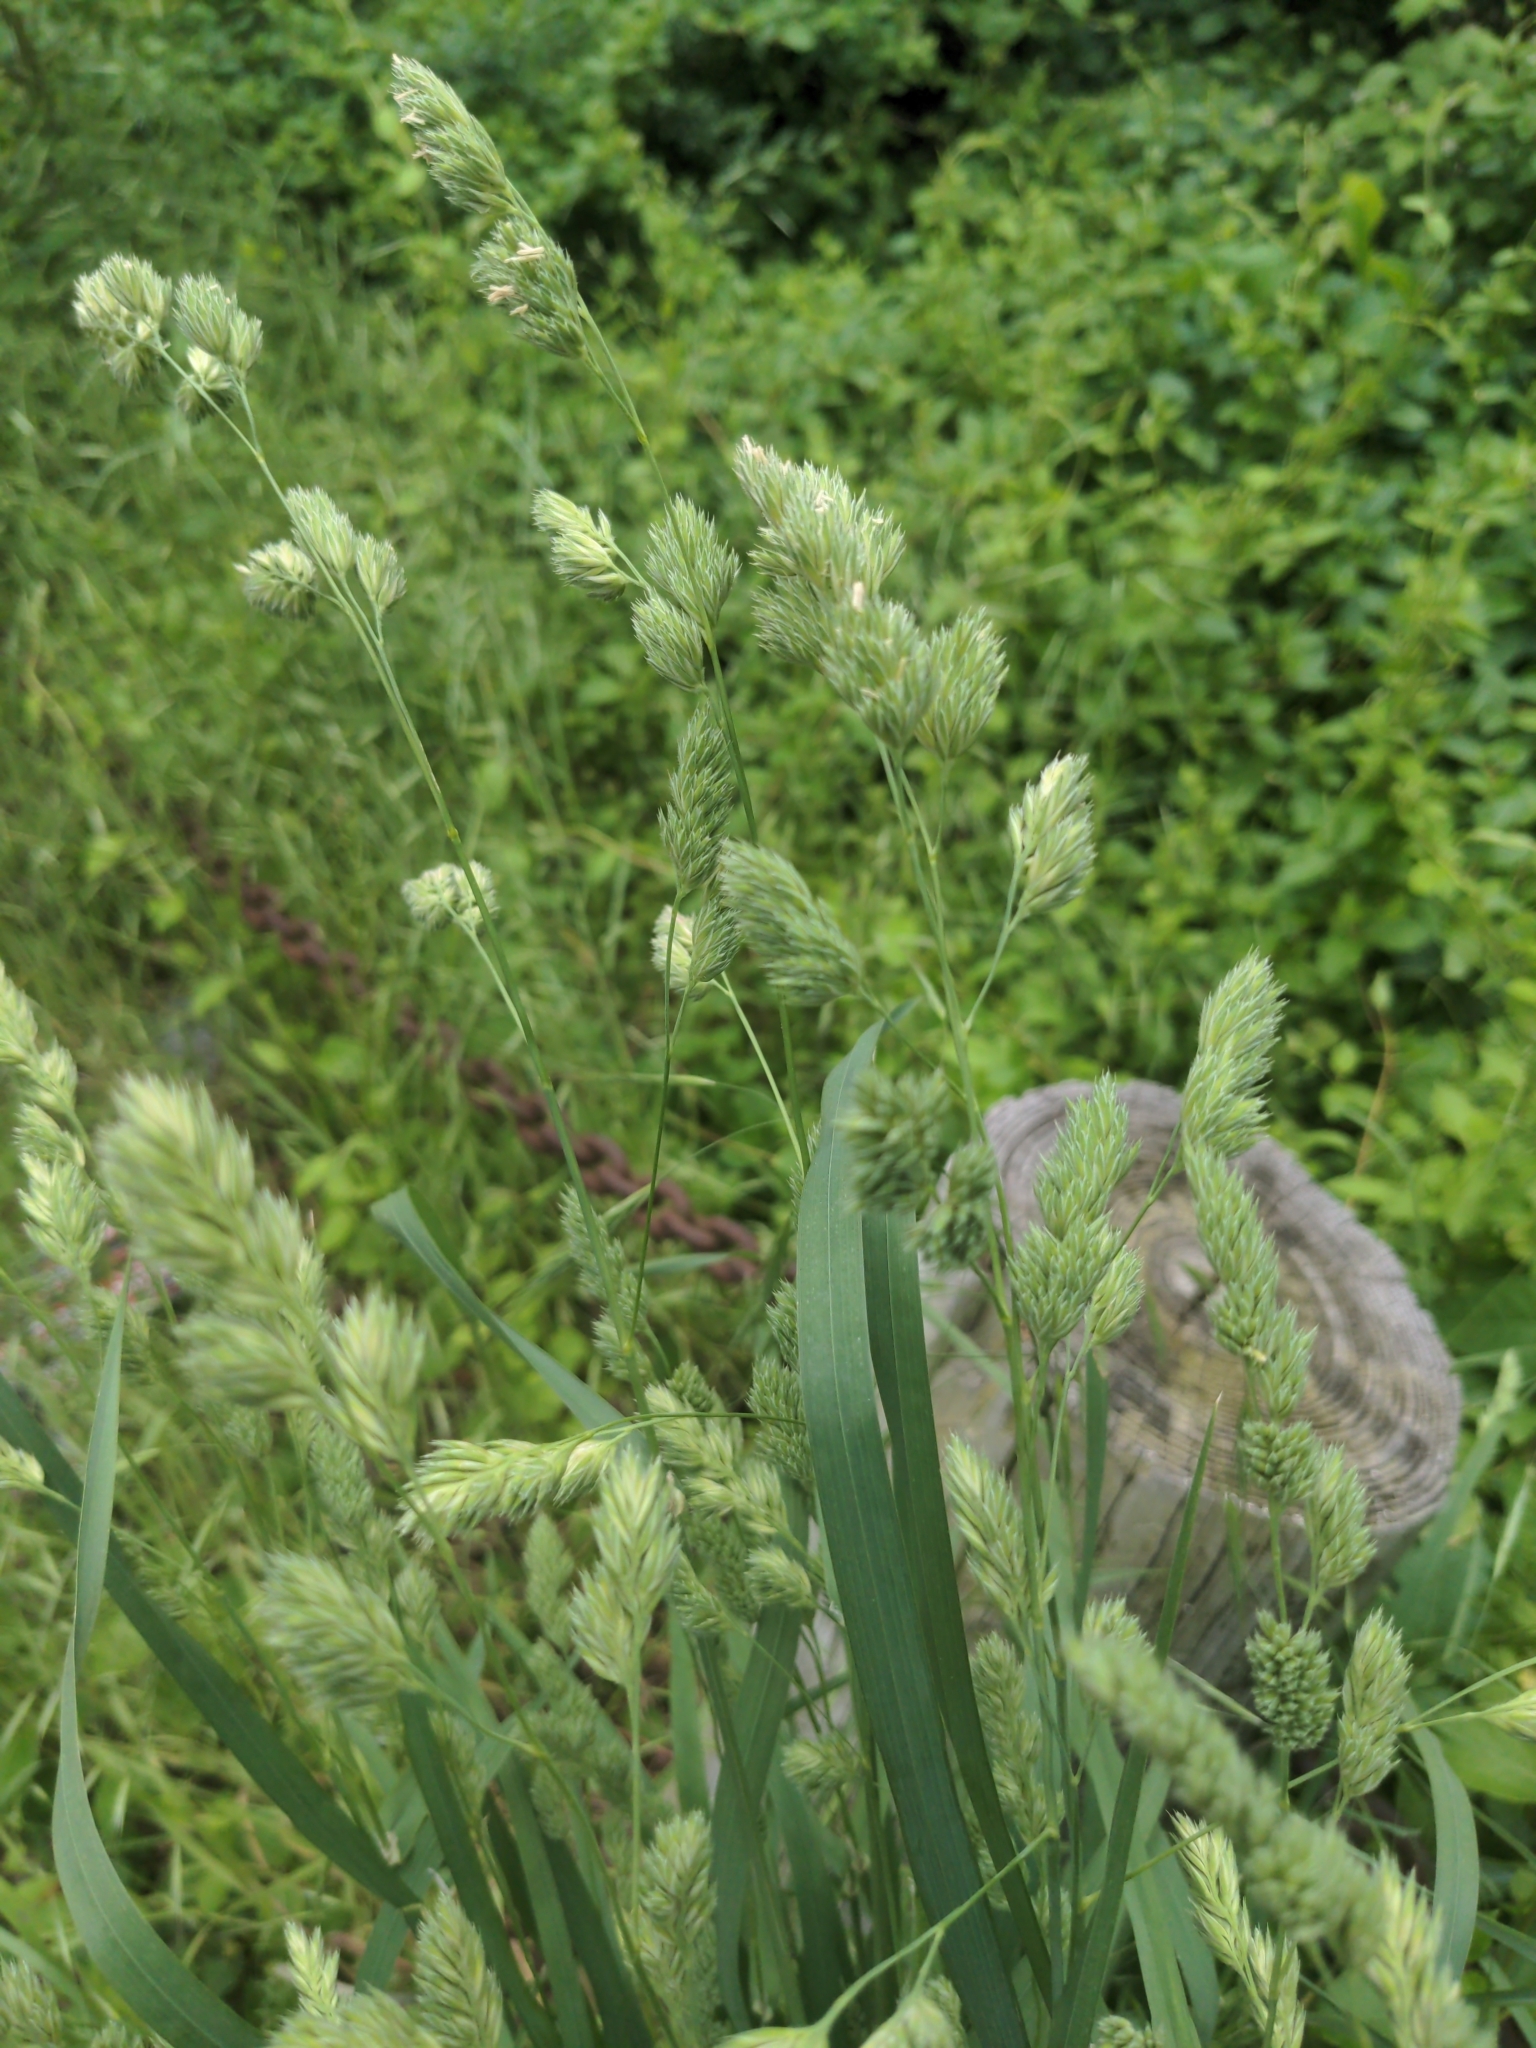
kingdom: Plantae
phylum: Tracheophyta
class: Liliopsida
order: Poales
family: Poaceae
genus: Dactylis
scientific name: Dactylis glomerata
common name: Orchardgrass
